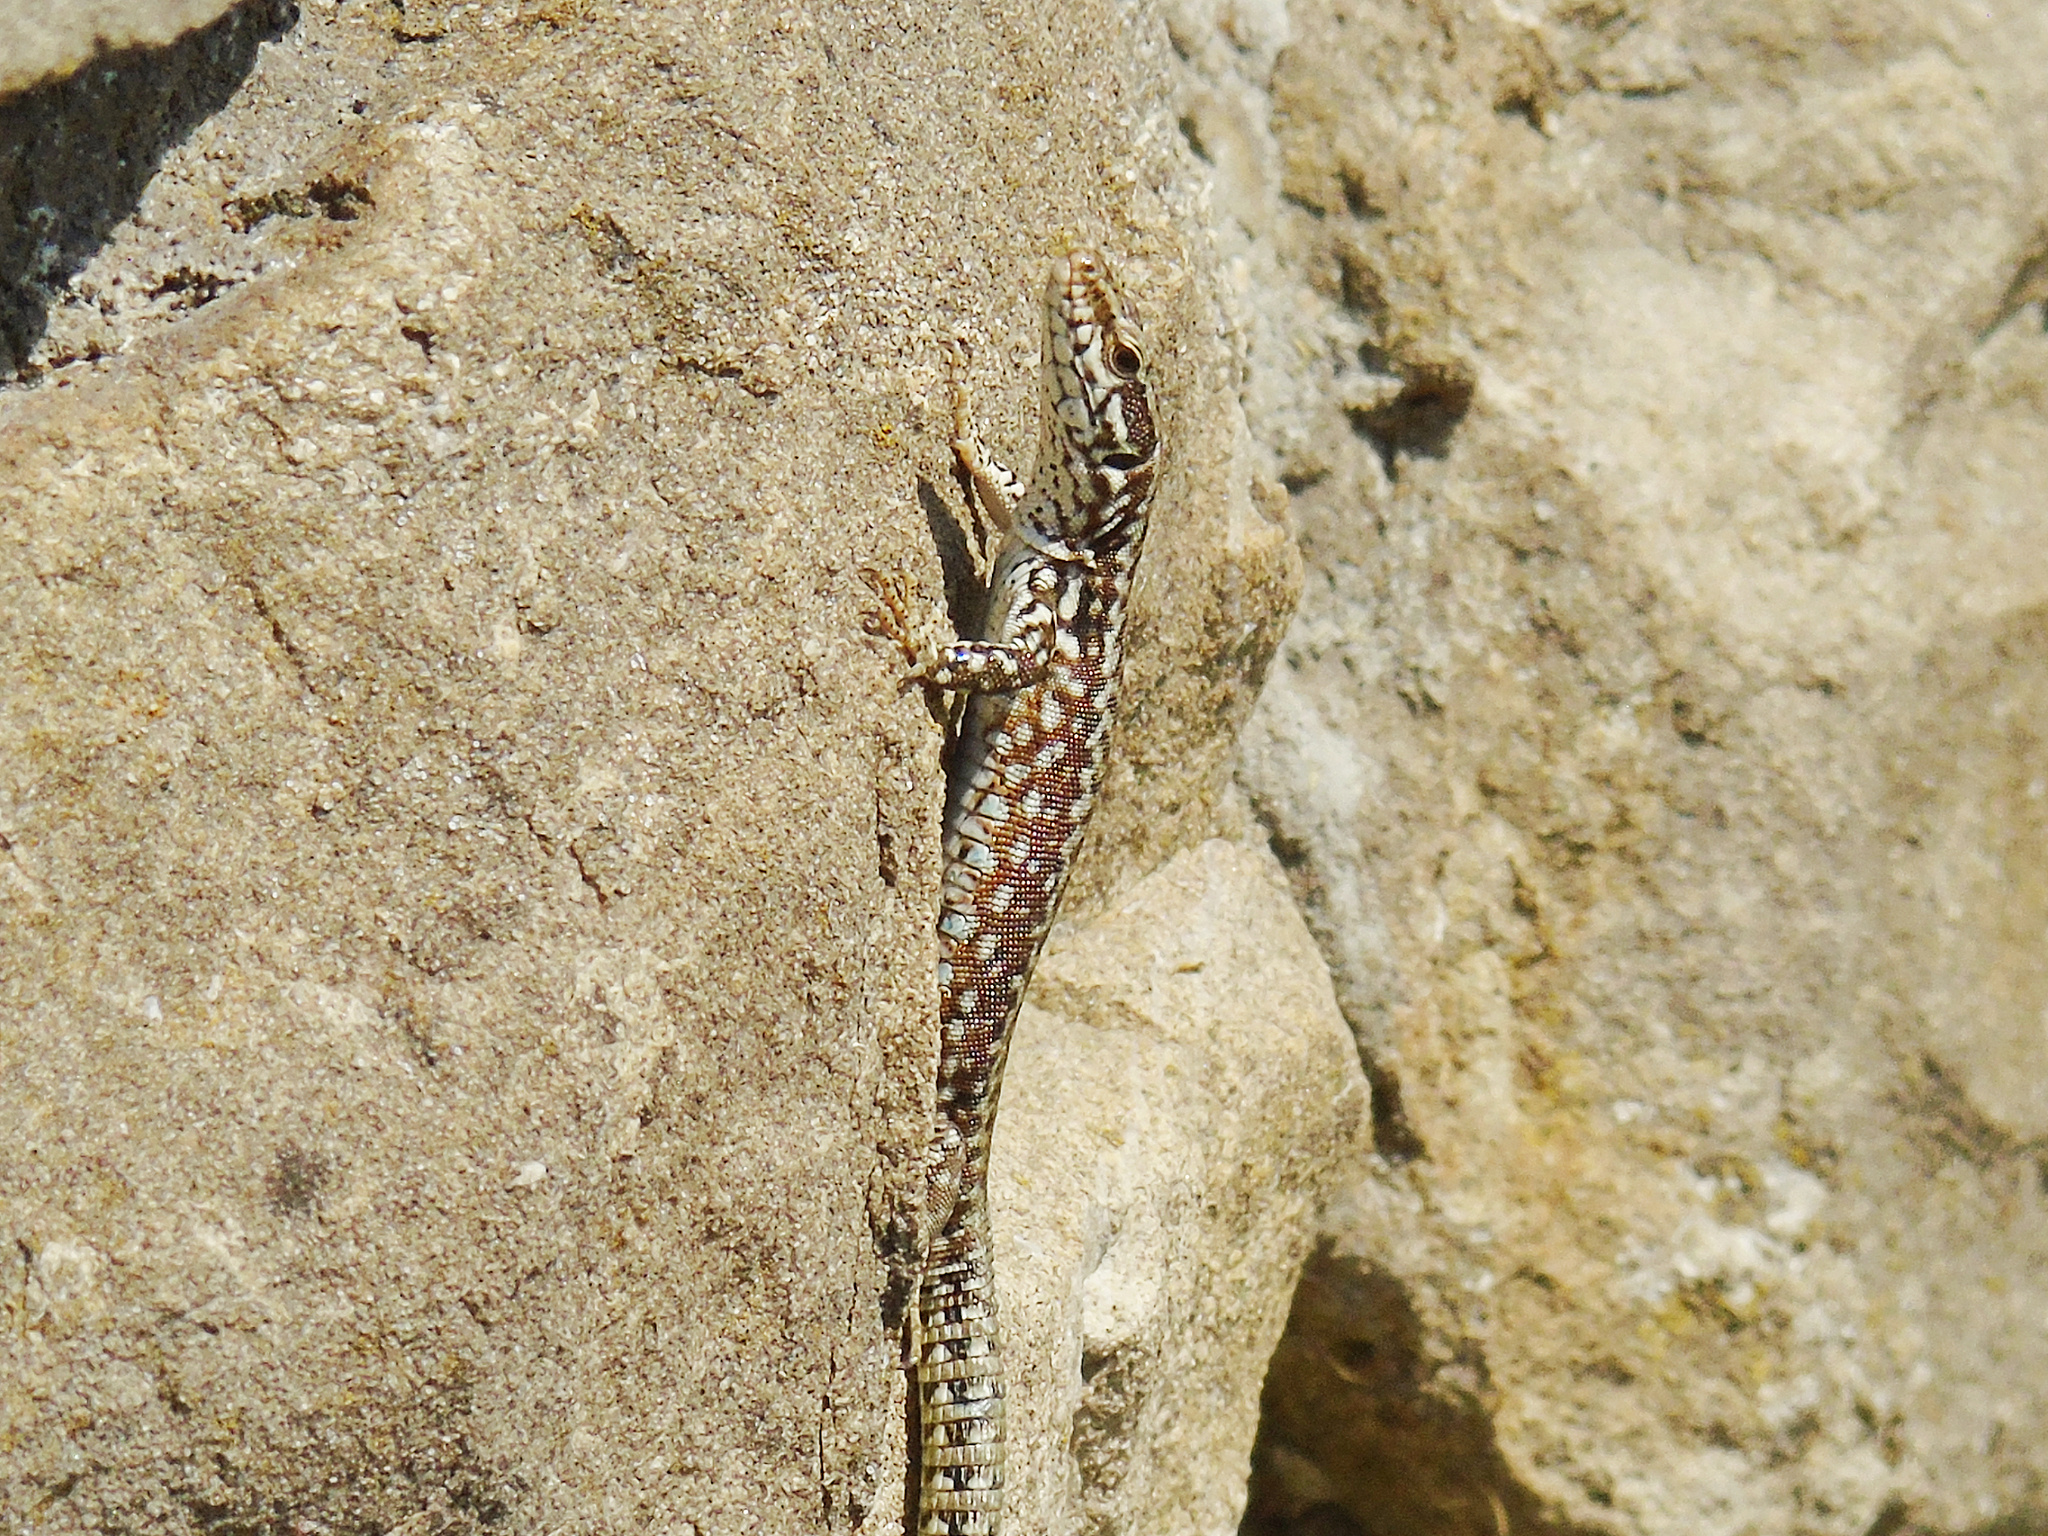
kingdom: Animalia
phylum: Chordata
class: Squamata
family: Lacertidae
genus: Podarcis
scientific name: Podarcis muralis
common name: Common wall lizard
